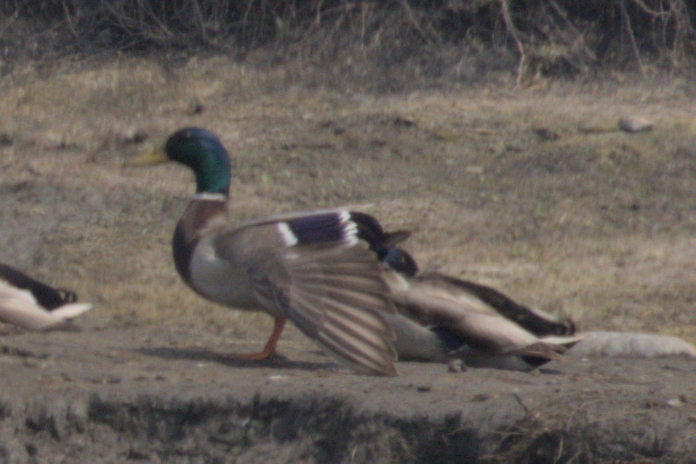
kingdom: Animalia
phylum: Chordata
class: Aves
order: Anseriformes
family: Anatidae
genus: Anas
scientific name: Anas platyrhynchos
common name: Mallard
